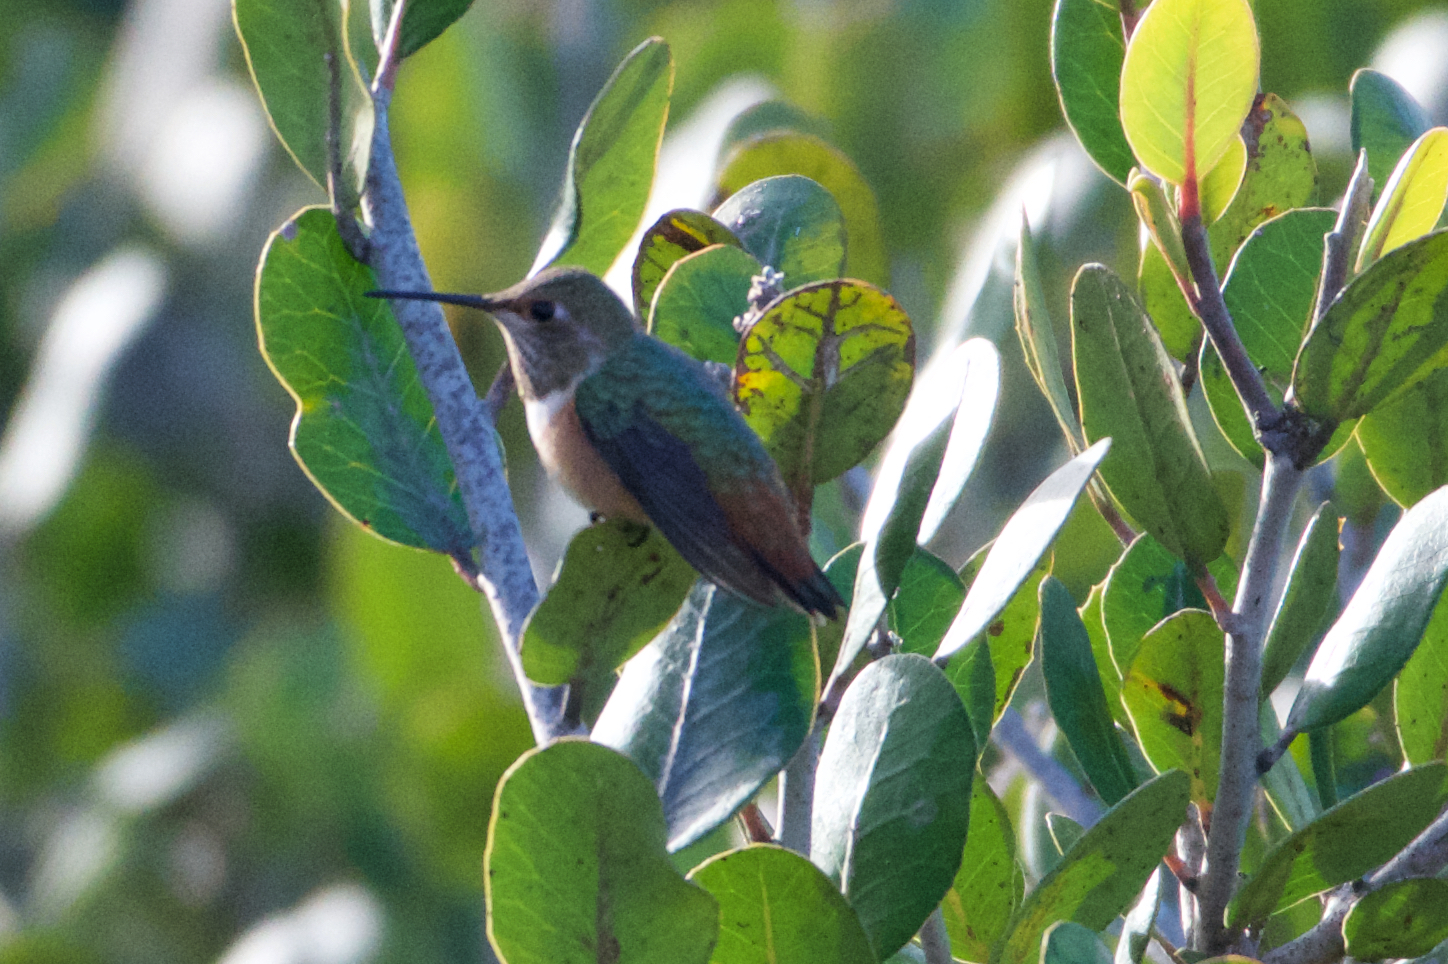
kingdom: Animalia
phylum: Chordata
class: Aves
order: Apodiformes
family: Trochilidae
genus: Selasphorus
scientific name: Selasphorus
